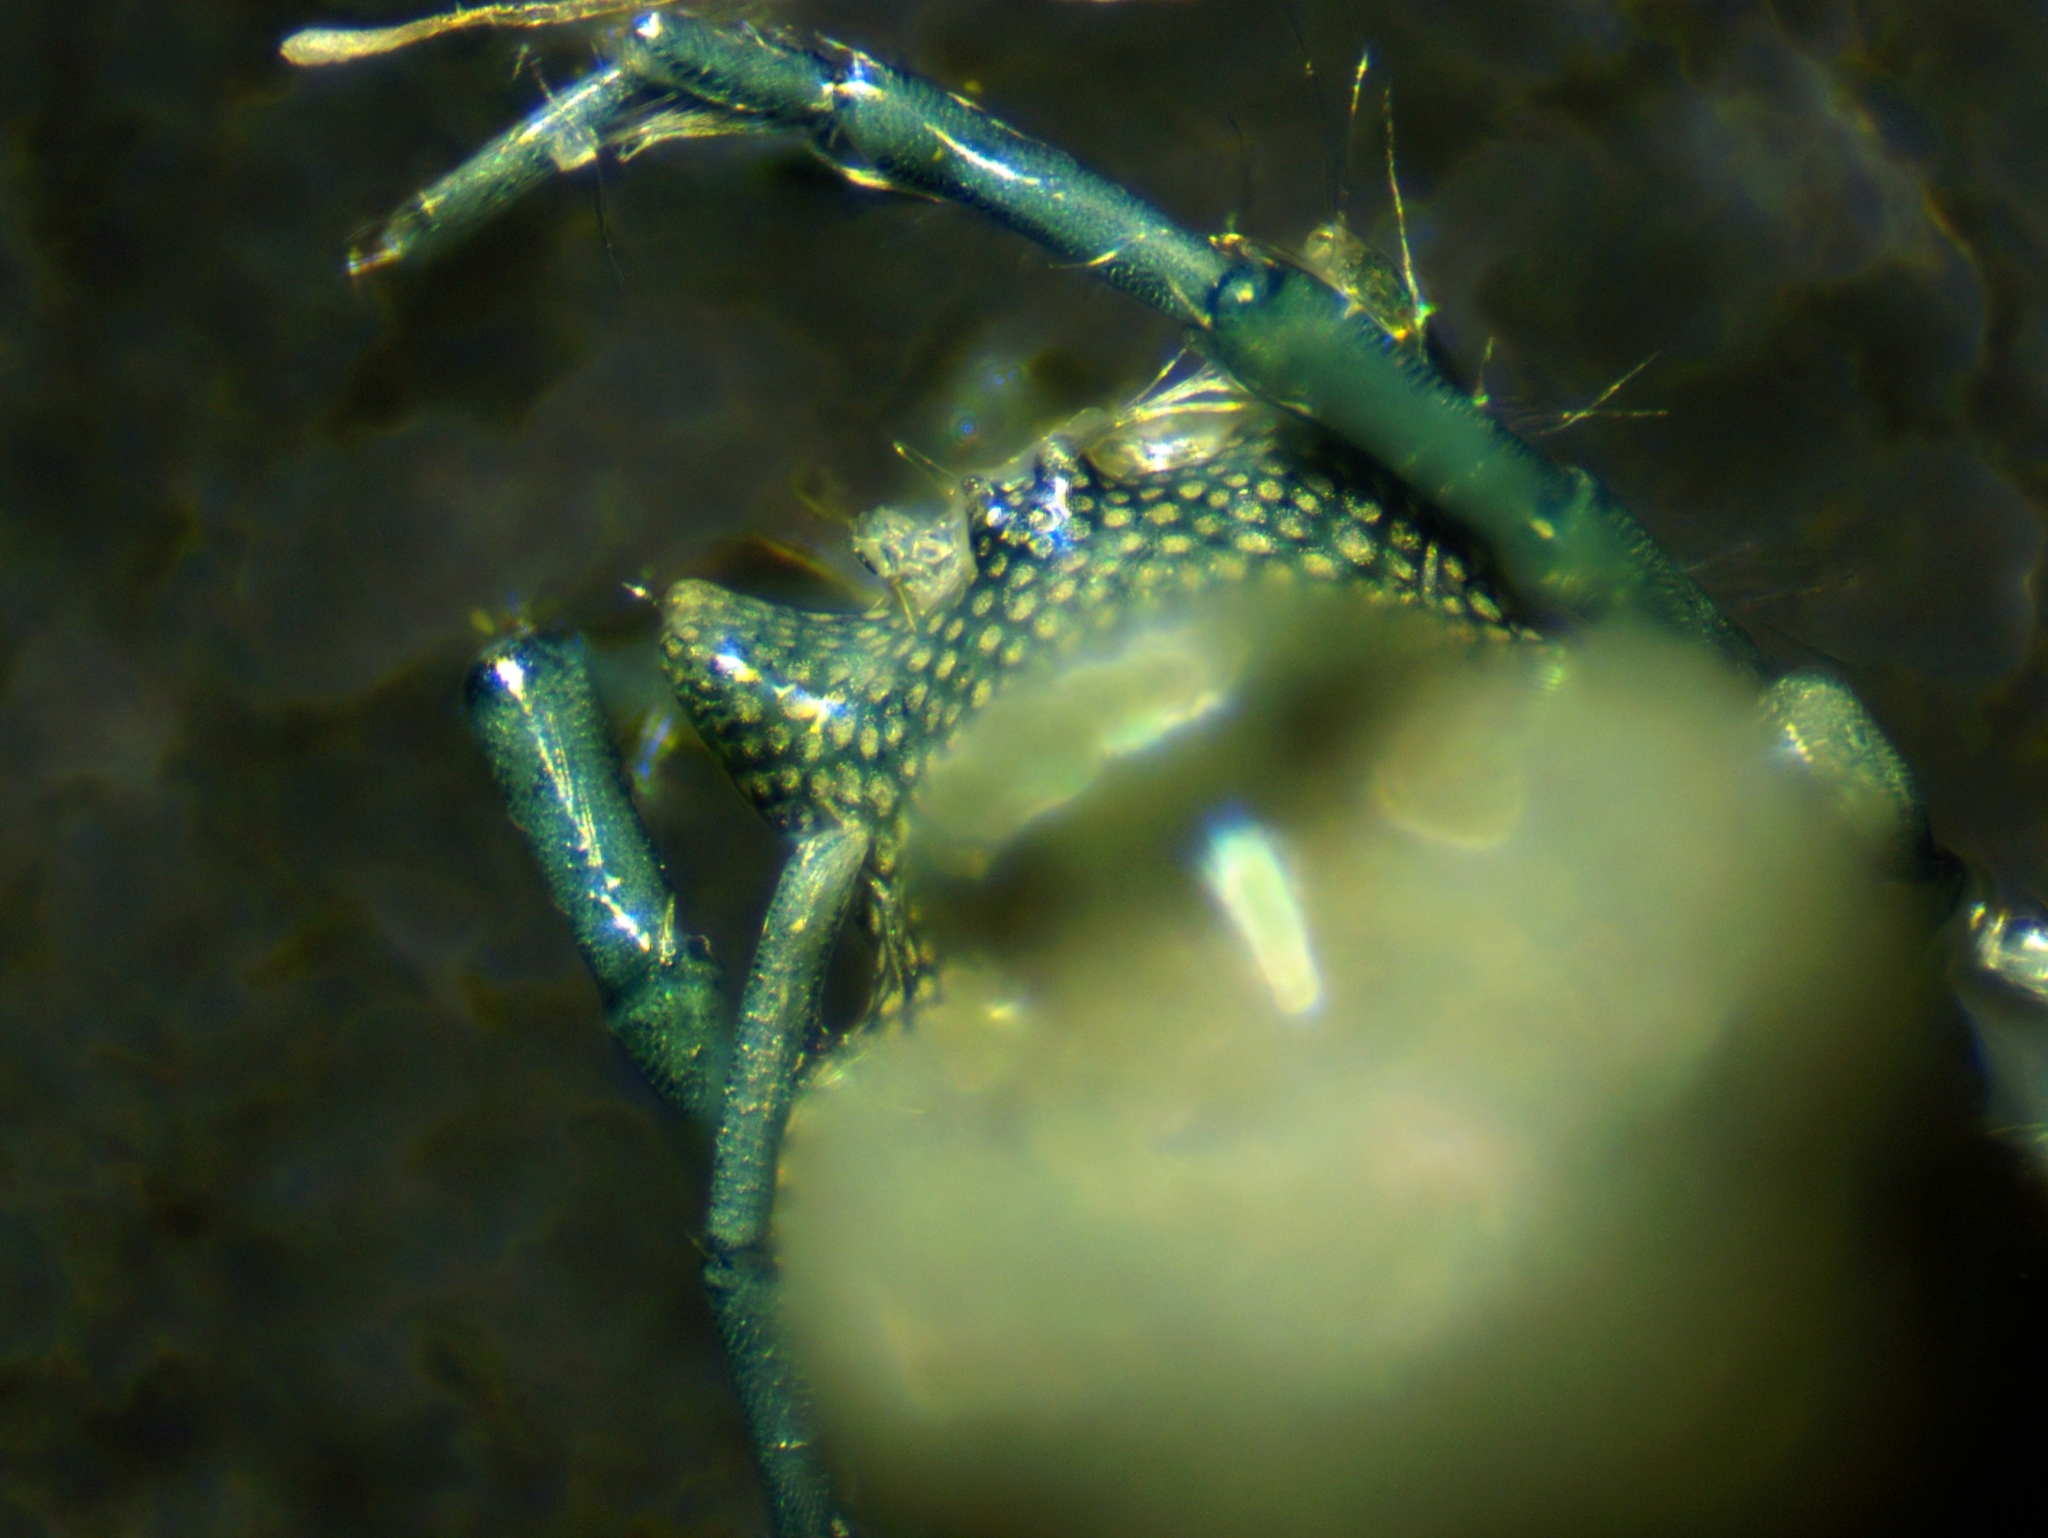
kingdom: Animalia
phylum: Arthropoda
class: Arachnida
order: Trombidiformes
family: Arrenuridae
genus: Arrenurus
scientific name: Arrenurus
